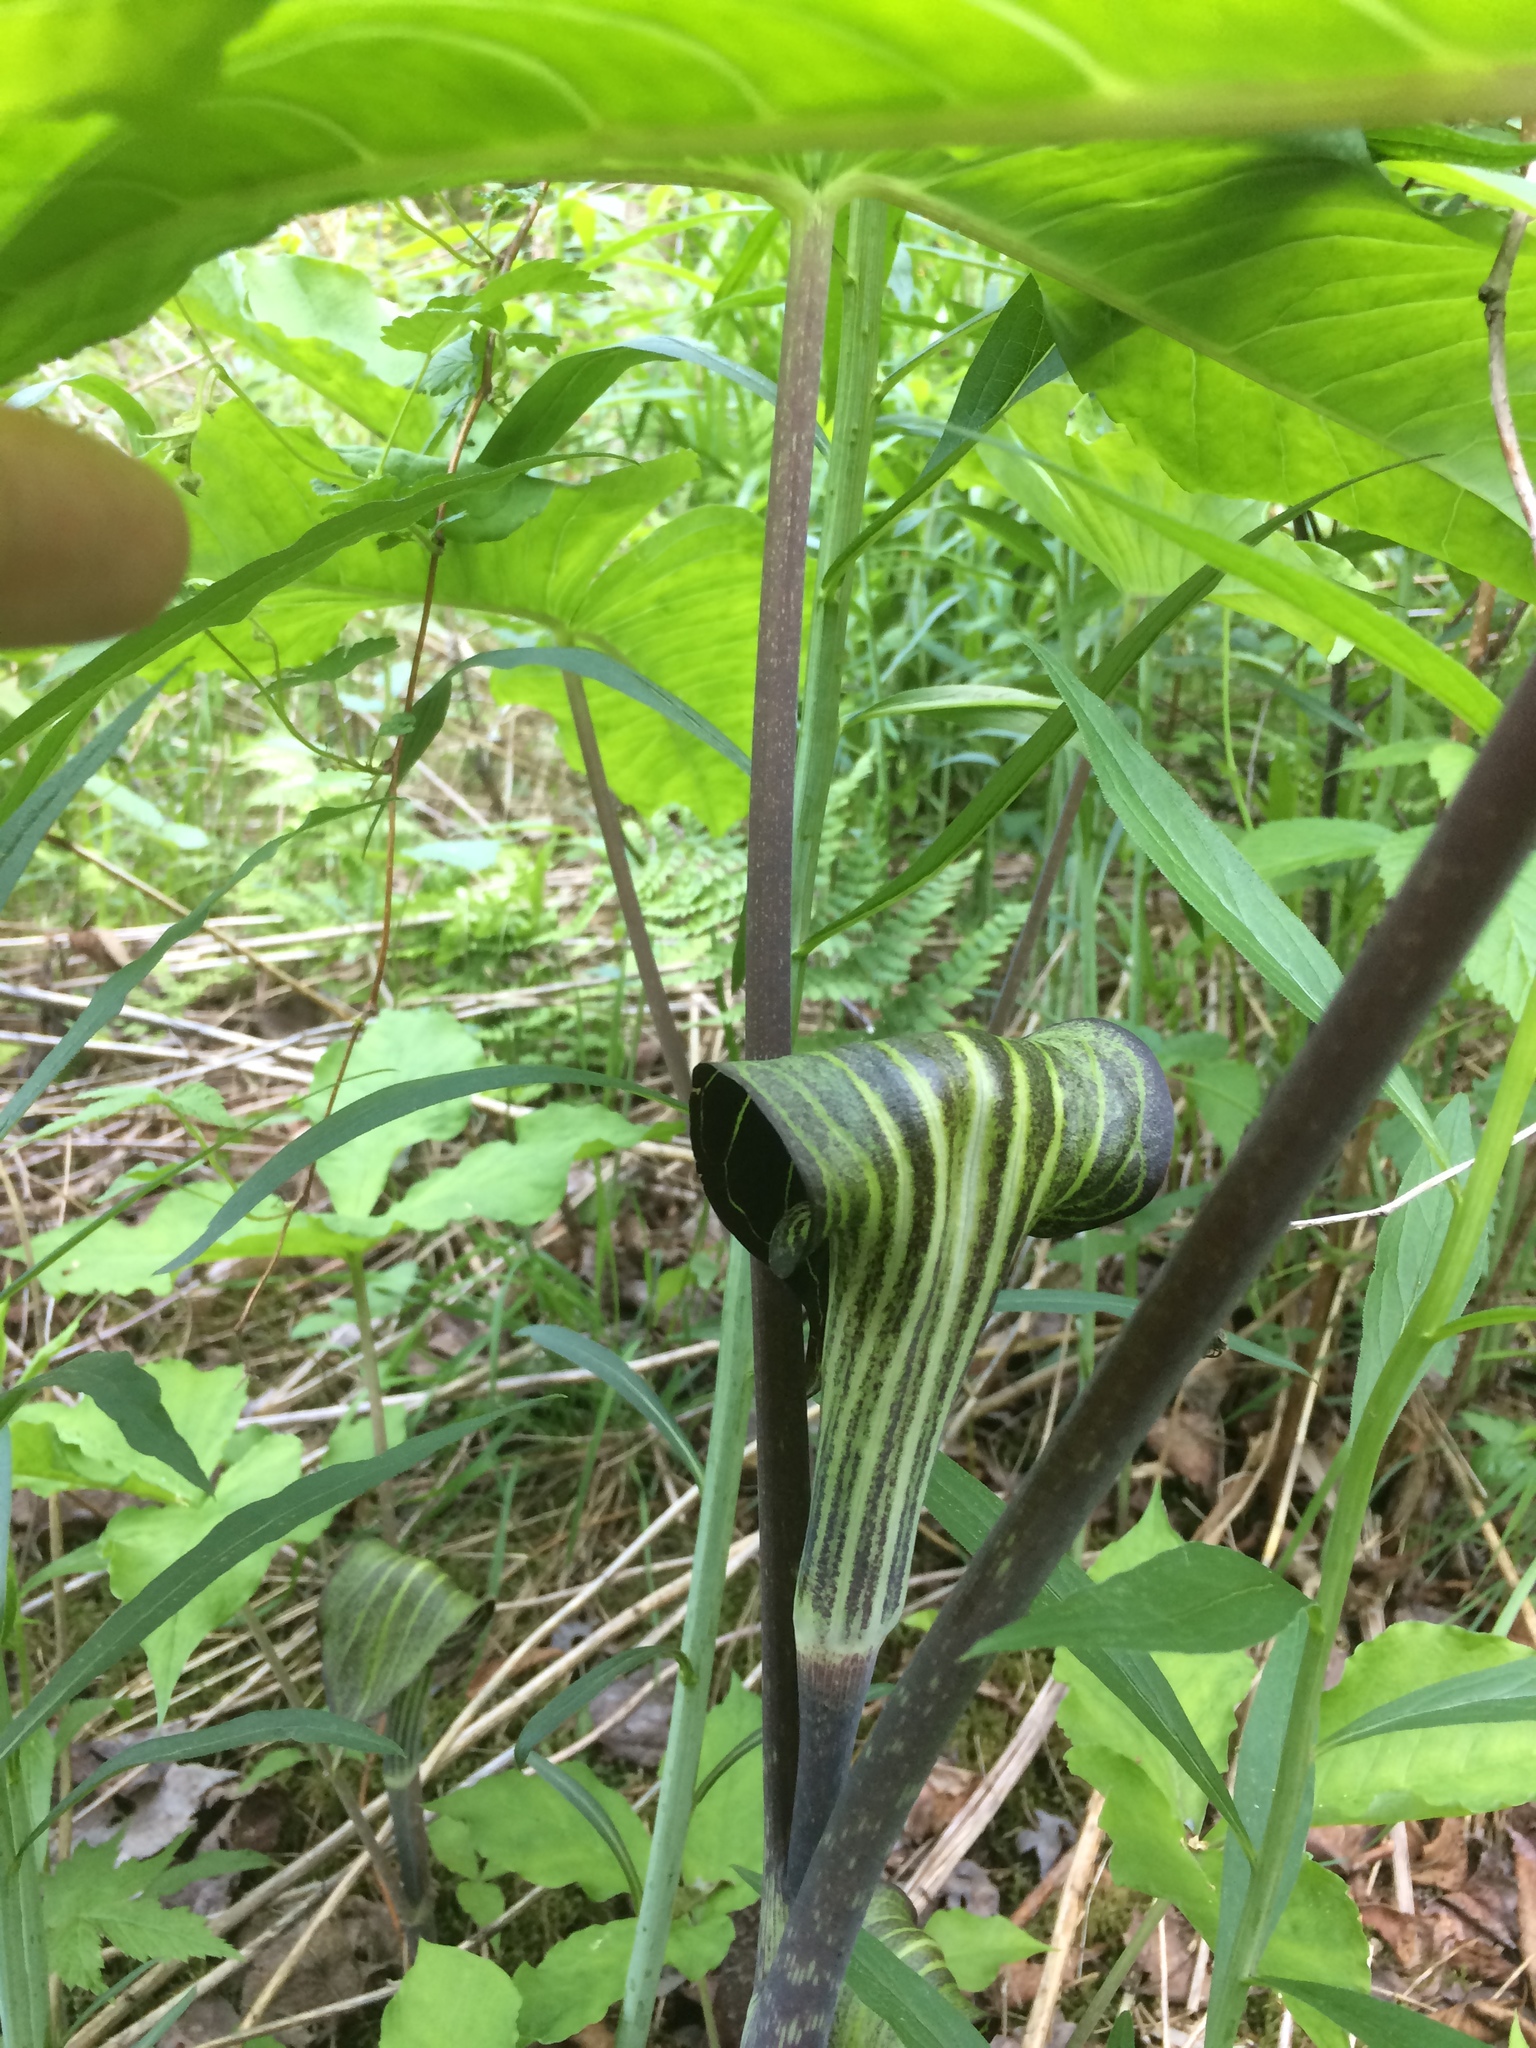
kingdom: Plantae
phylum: Tracheophyta
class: Liliopsida
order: Alismatales
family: Araceae
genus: Arisaema
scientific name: Arisaema triphyllum
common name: Jack-in-the-pulpit
